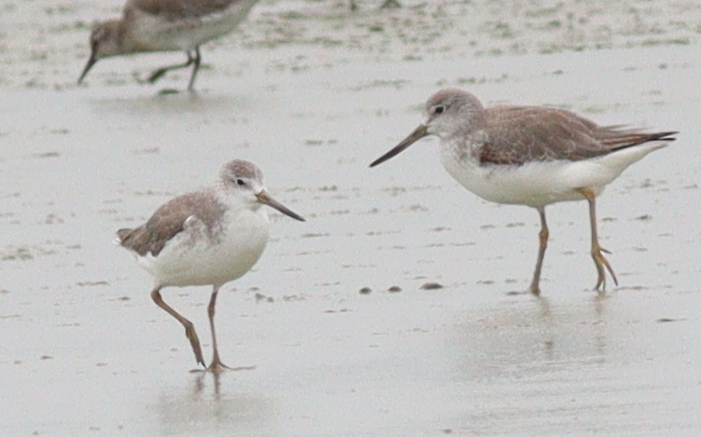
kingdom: Animalia
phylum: Chordata
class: Aves
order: Charadriiformes
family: Scolopacidae
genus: Tringa
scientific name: Tringa guttifer
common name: Nordmann's greenshank
